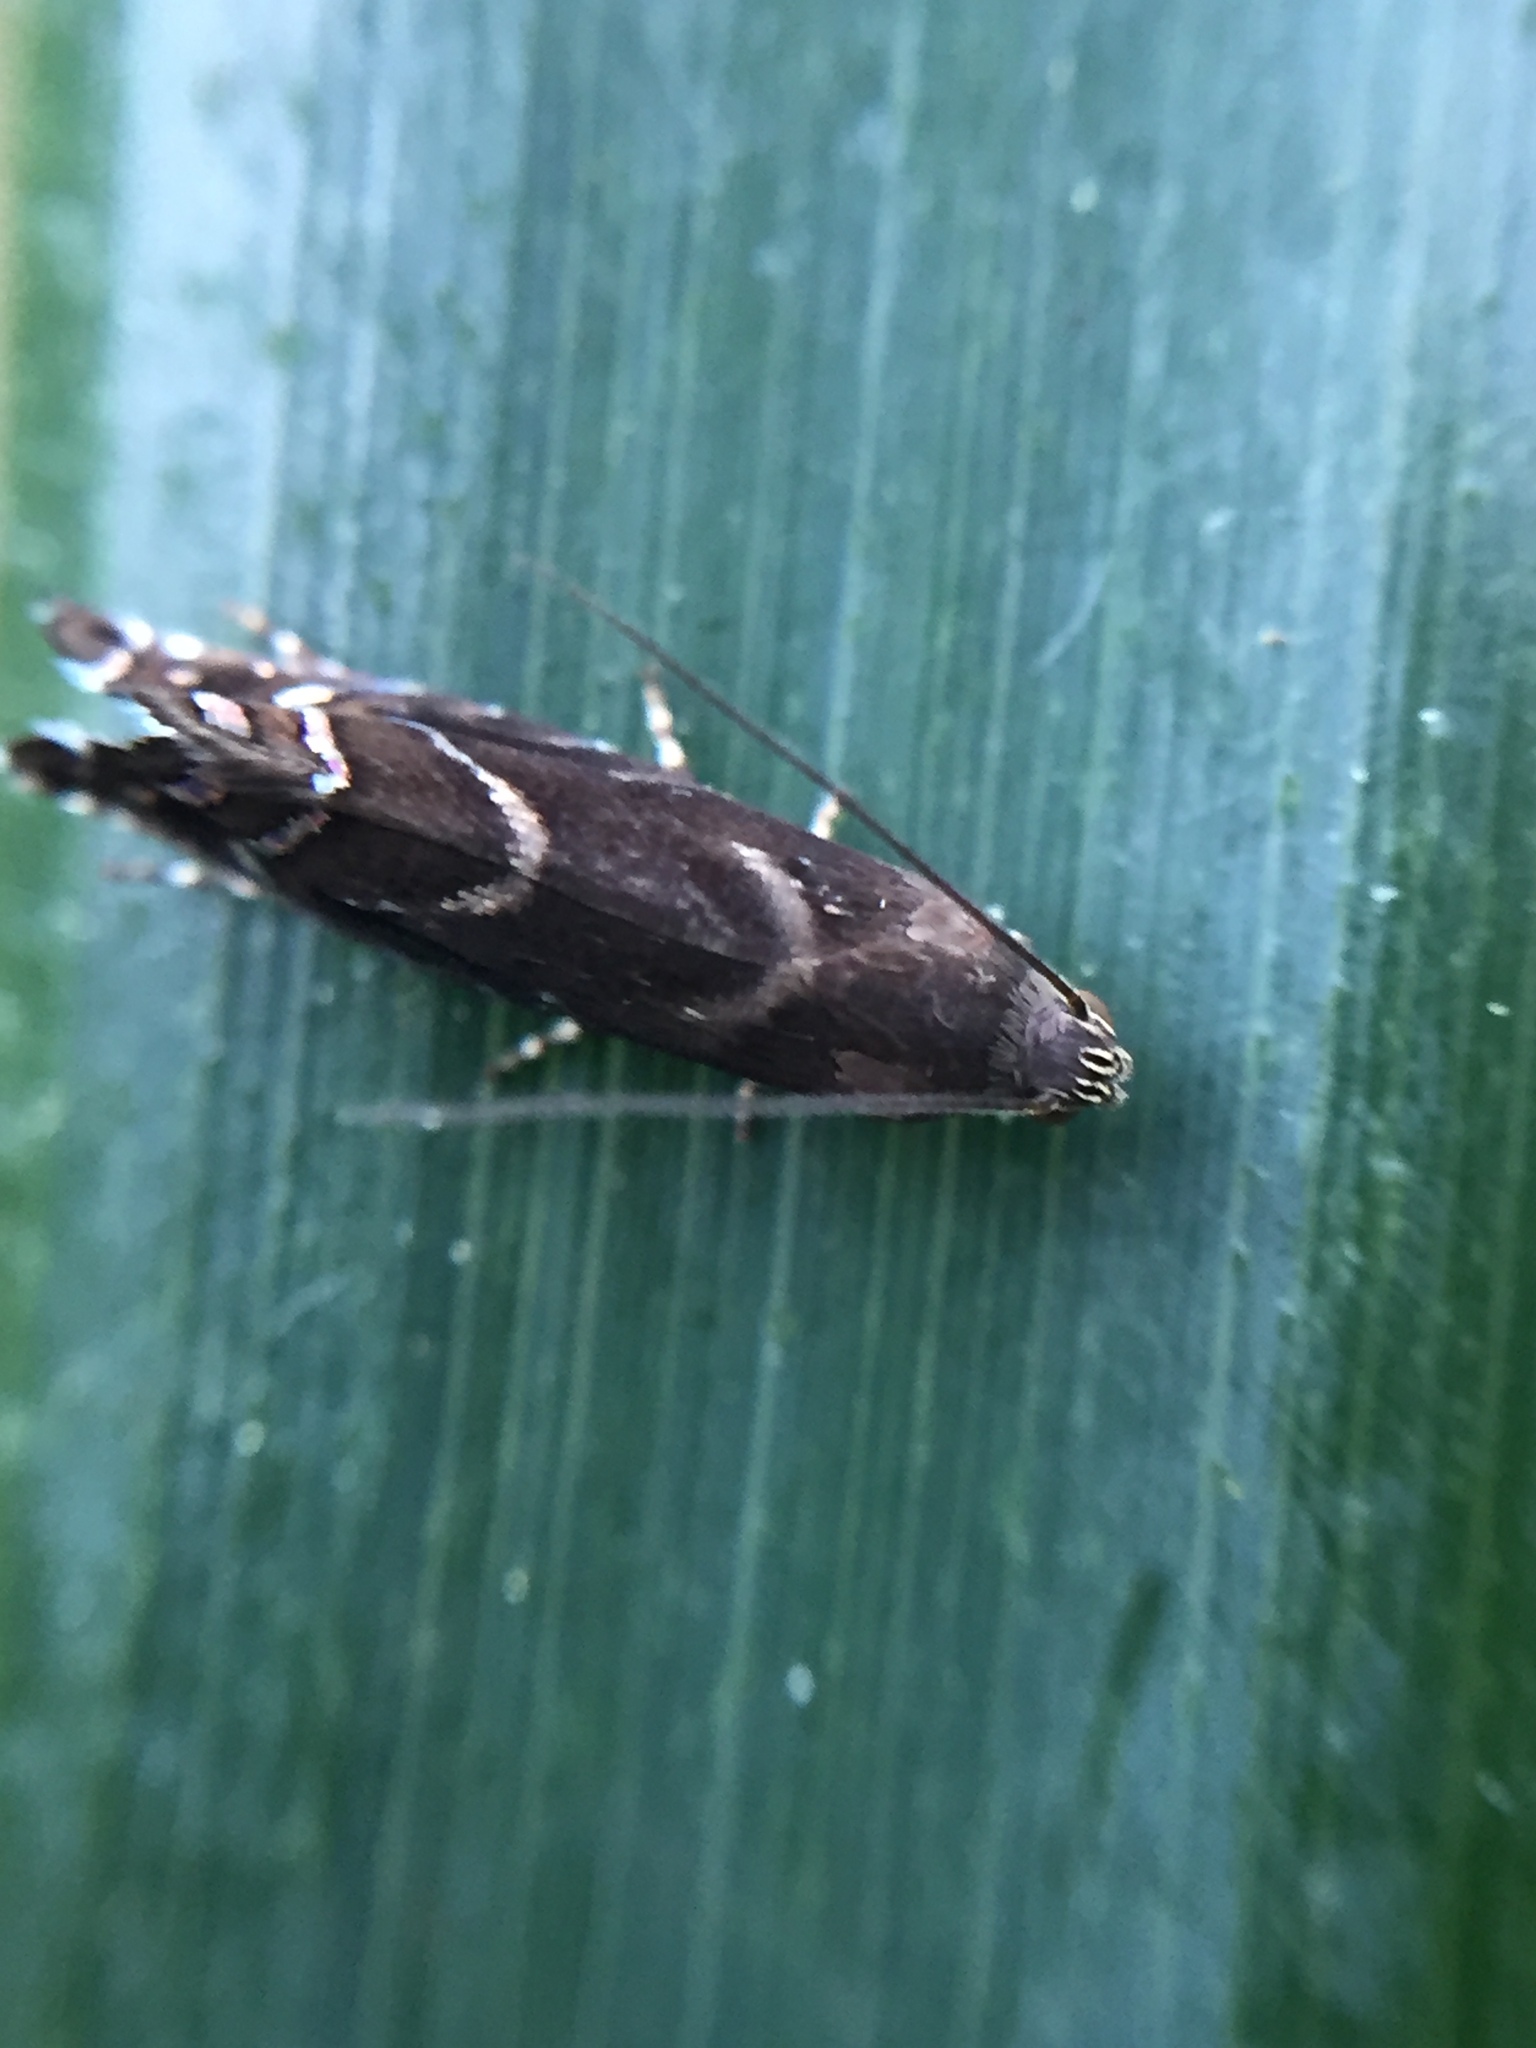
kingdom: Animalia
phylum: Arthropoda
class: Insecta
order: Lepidoptera
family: Glyphipterigidae
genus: Glyphipterix
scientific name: Glyphipterix dichorda
